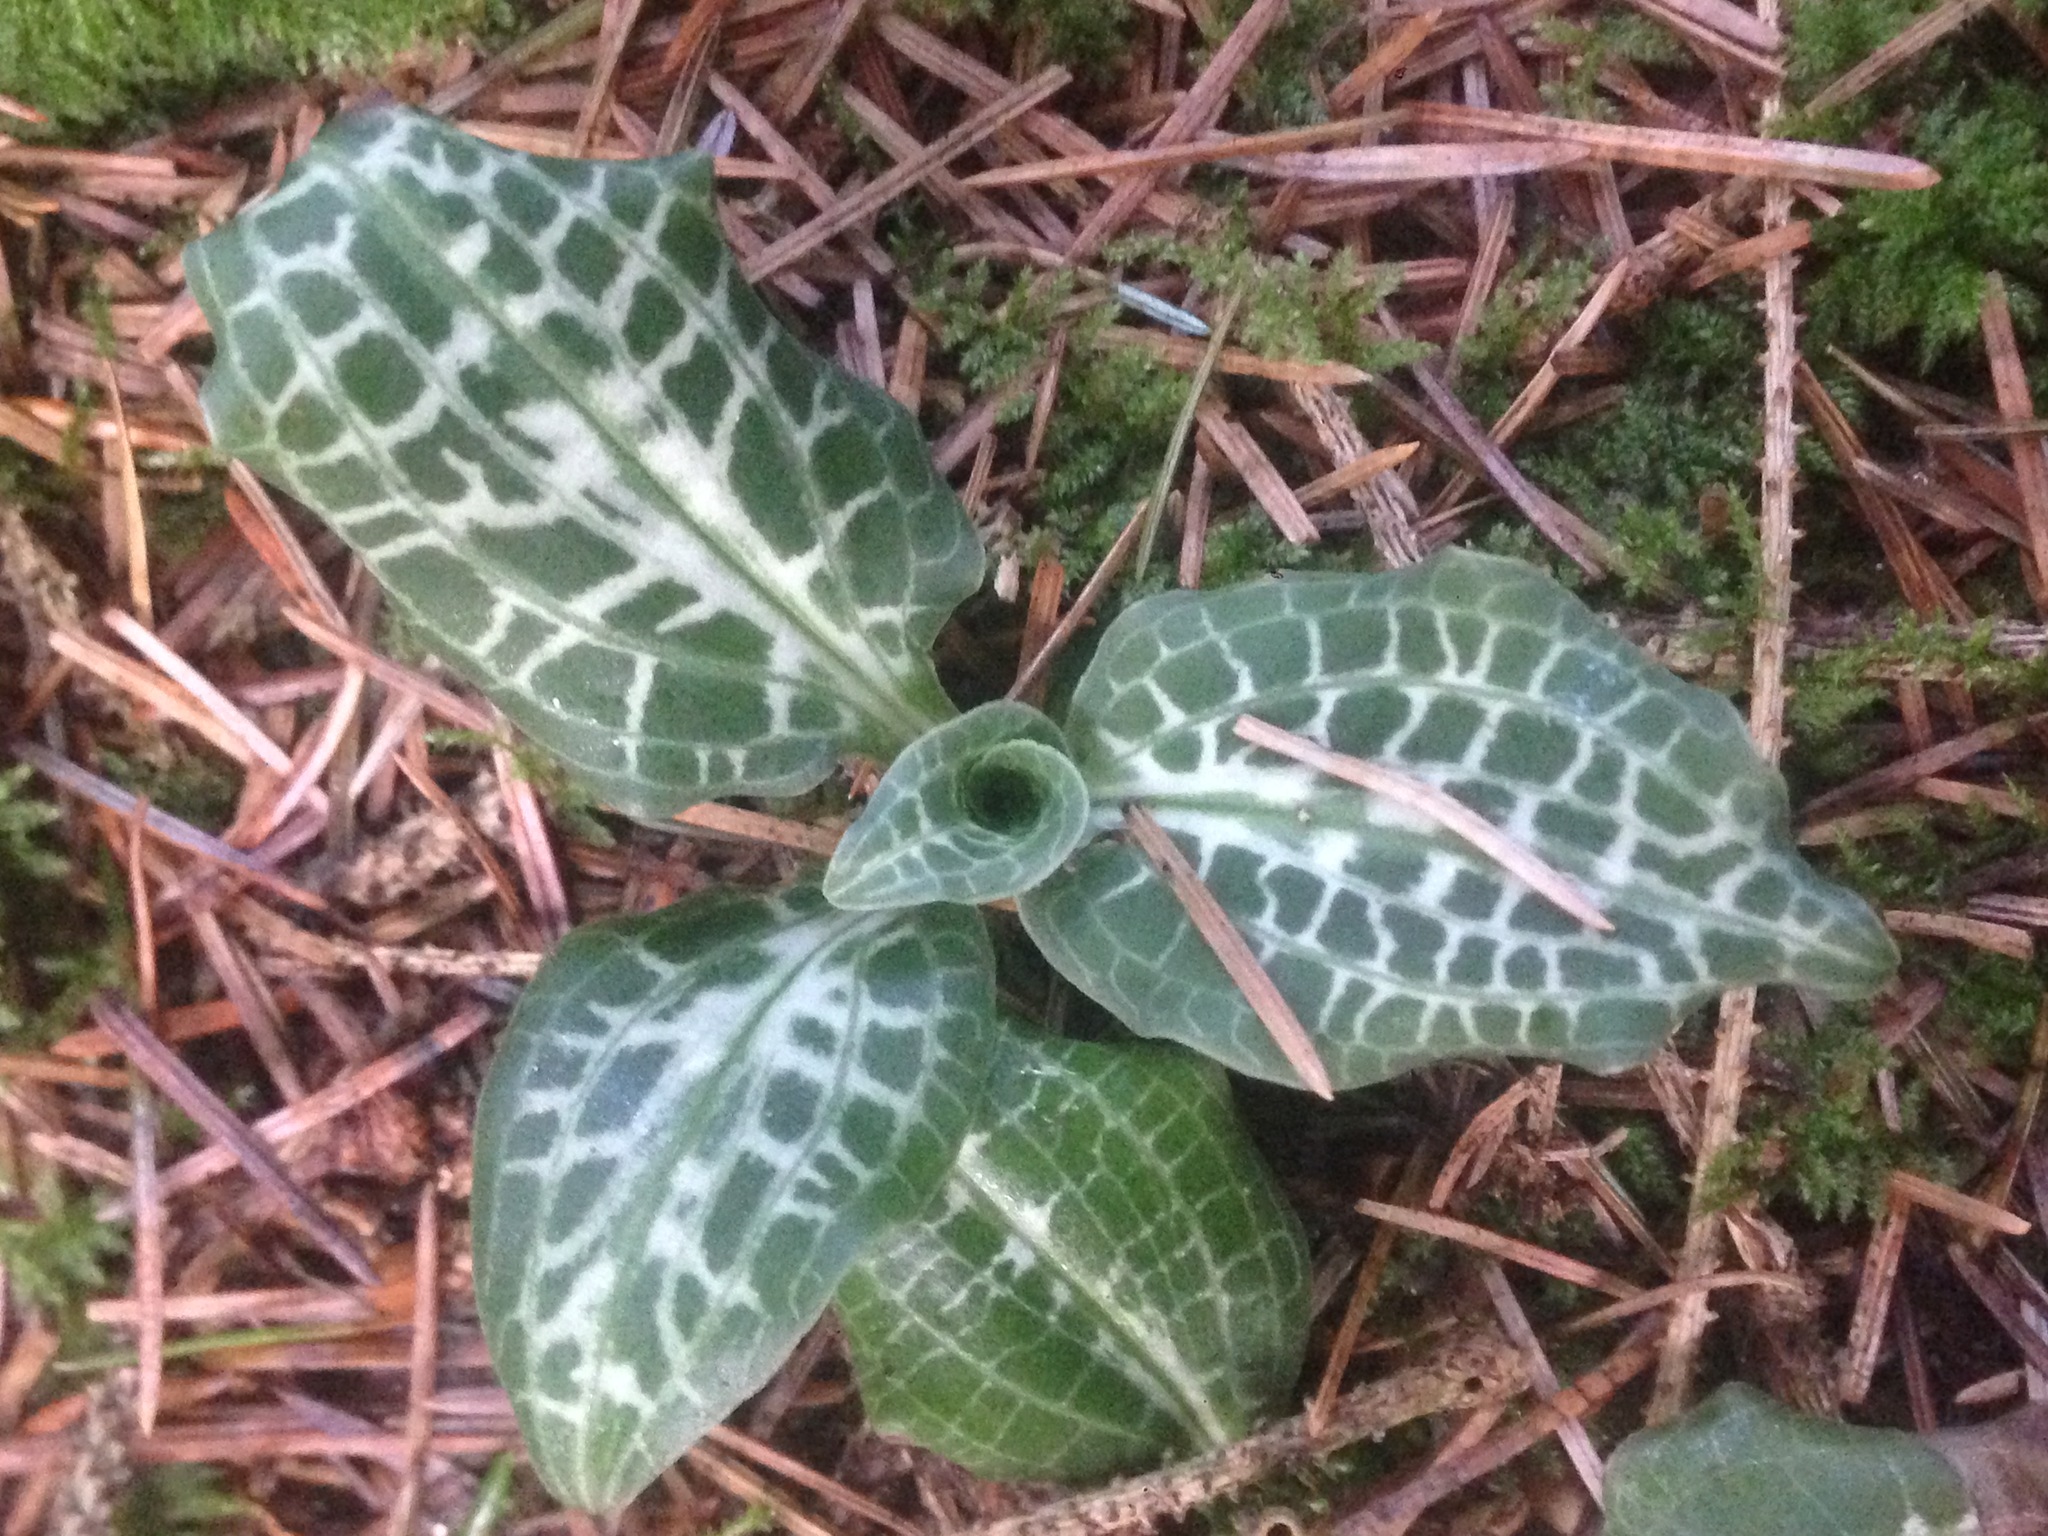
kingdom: Plantae
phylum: Tracheophyta
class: Liliopsida
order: Asparagales
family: Orchidaceae
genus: Goodyera
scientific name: Goodyera oblongifolia
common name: Giant rattlesnake-plantain
